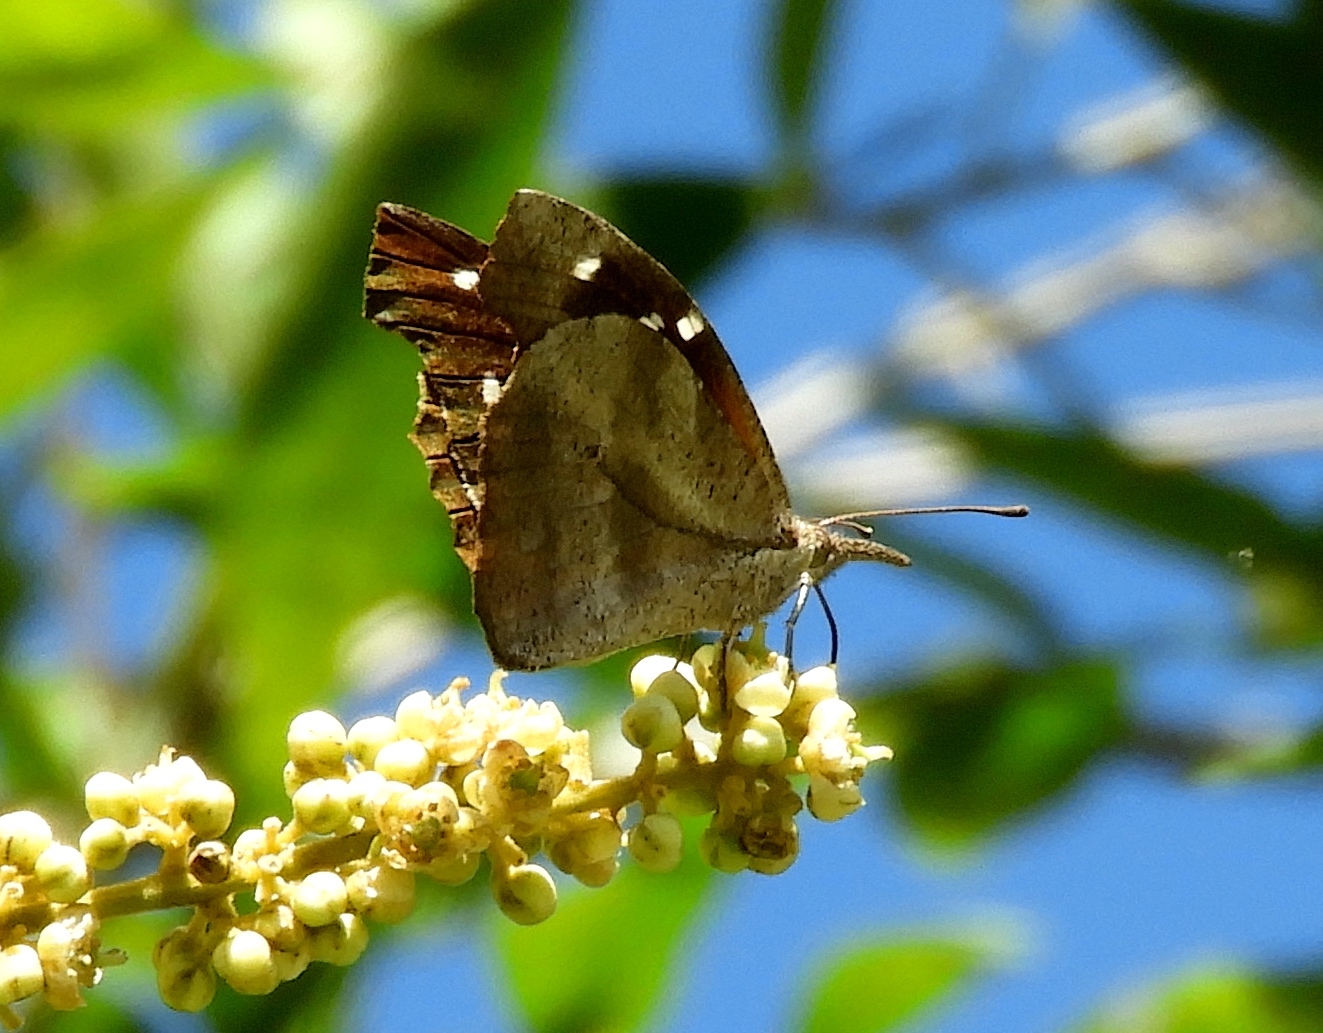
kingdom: Animalia
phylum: Arthropoda
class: Insecta
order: Lepidoptera
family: Nymphalidae
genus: Libytheana
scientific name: Libytheana carinenta
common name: American snout
